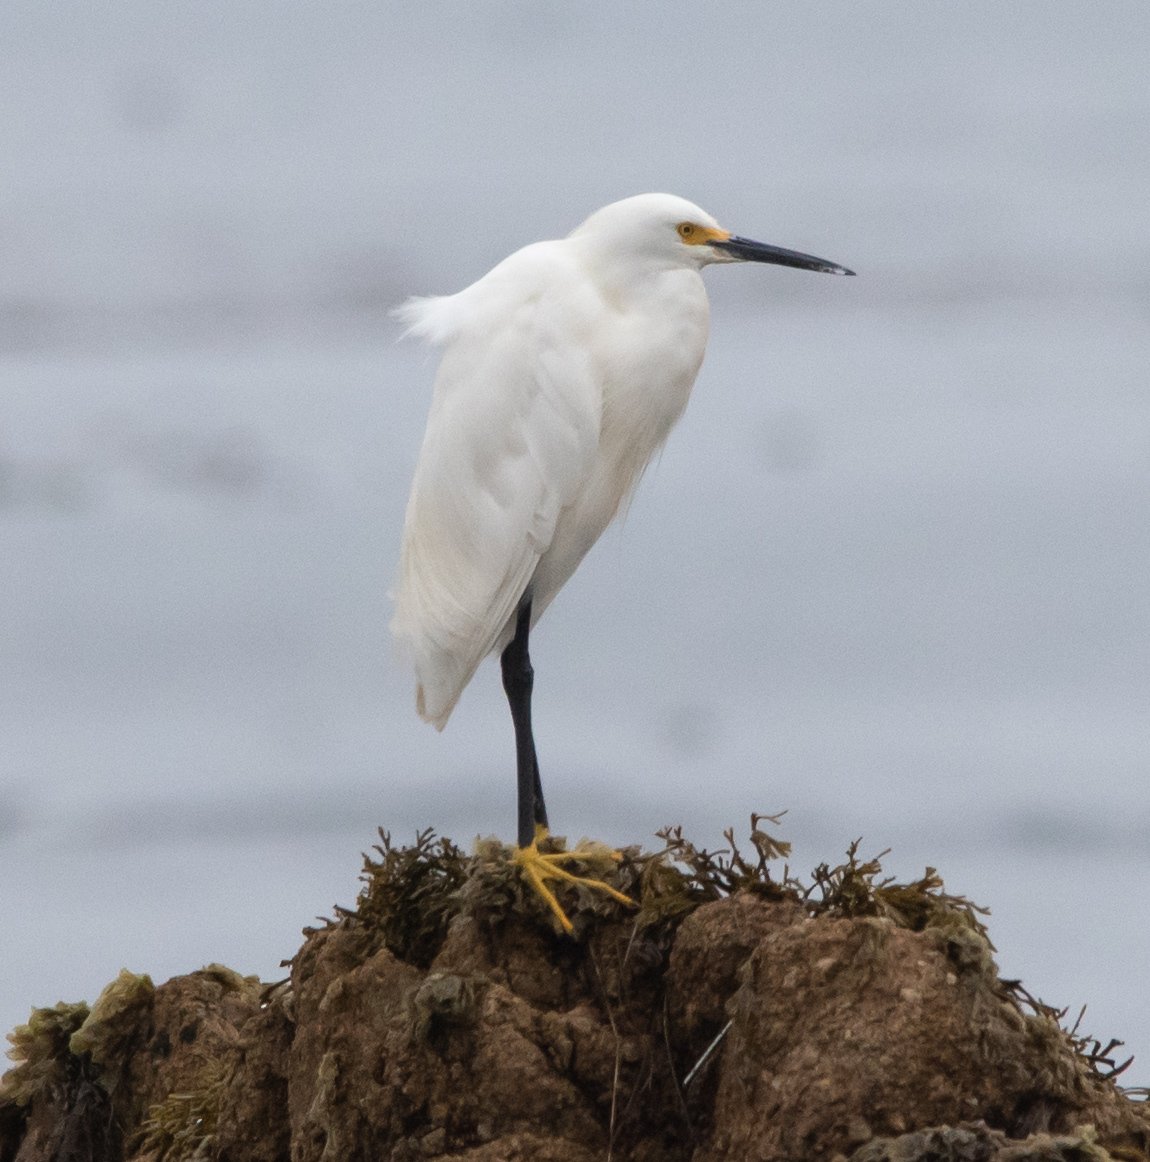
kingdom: Animalia
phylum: Chordata
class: Aves
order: Pelecaniformes
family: Ardeidae
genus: Egretta
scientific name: Egretta thula
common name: Snowy egret
